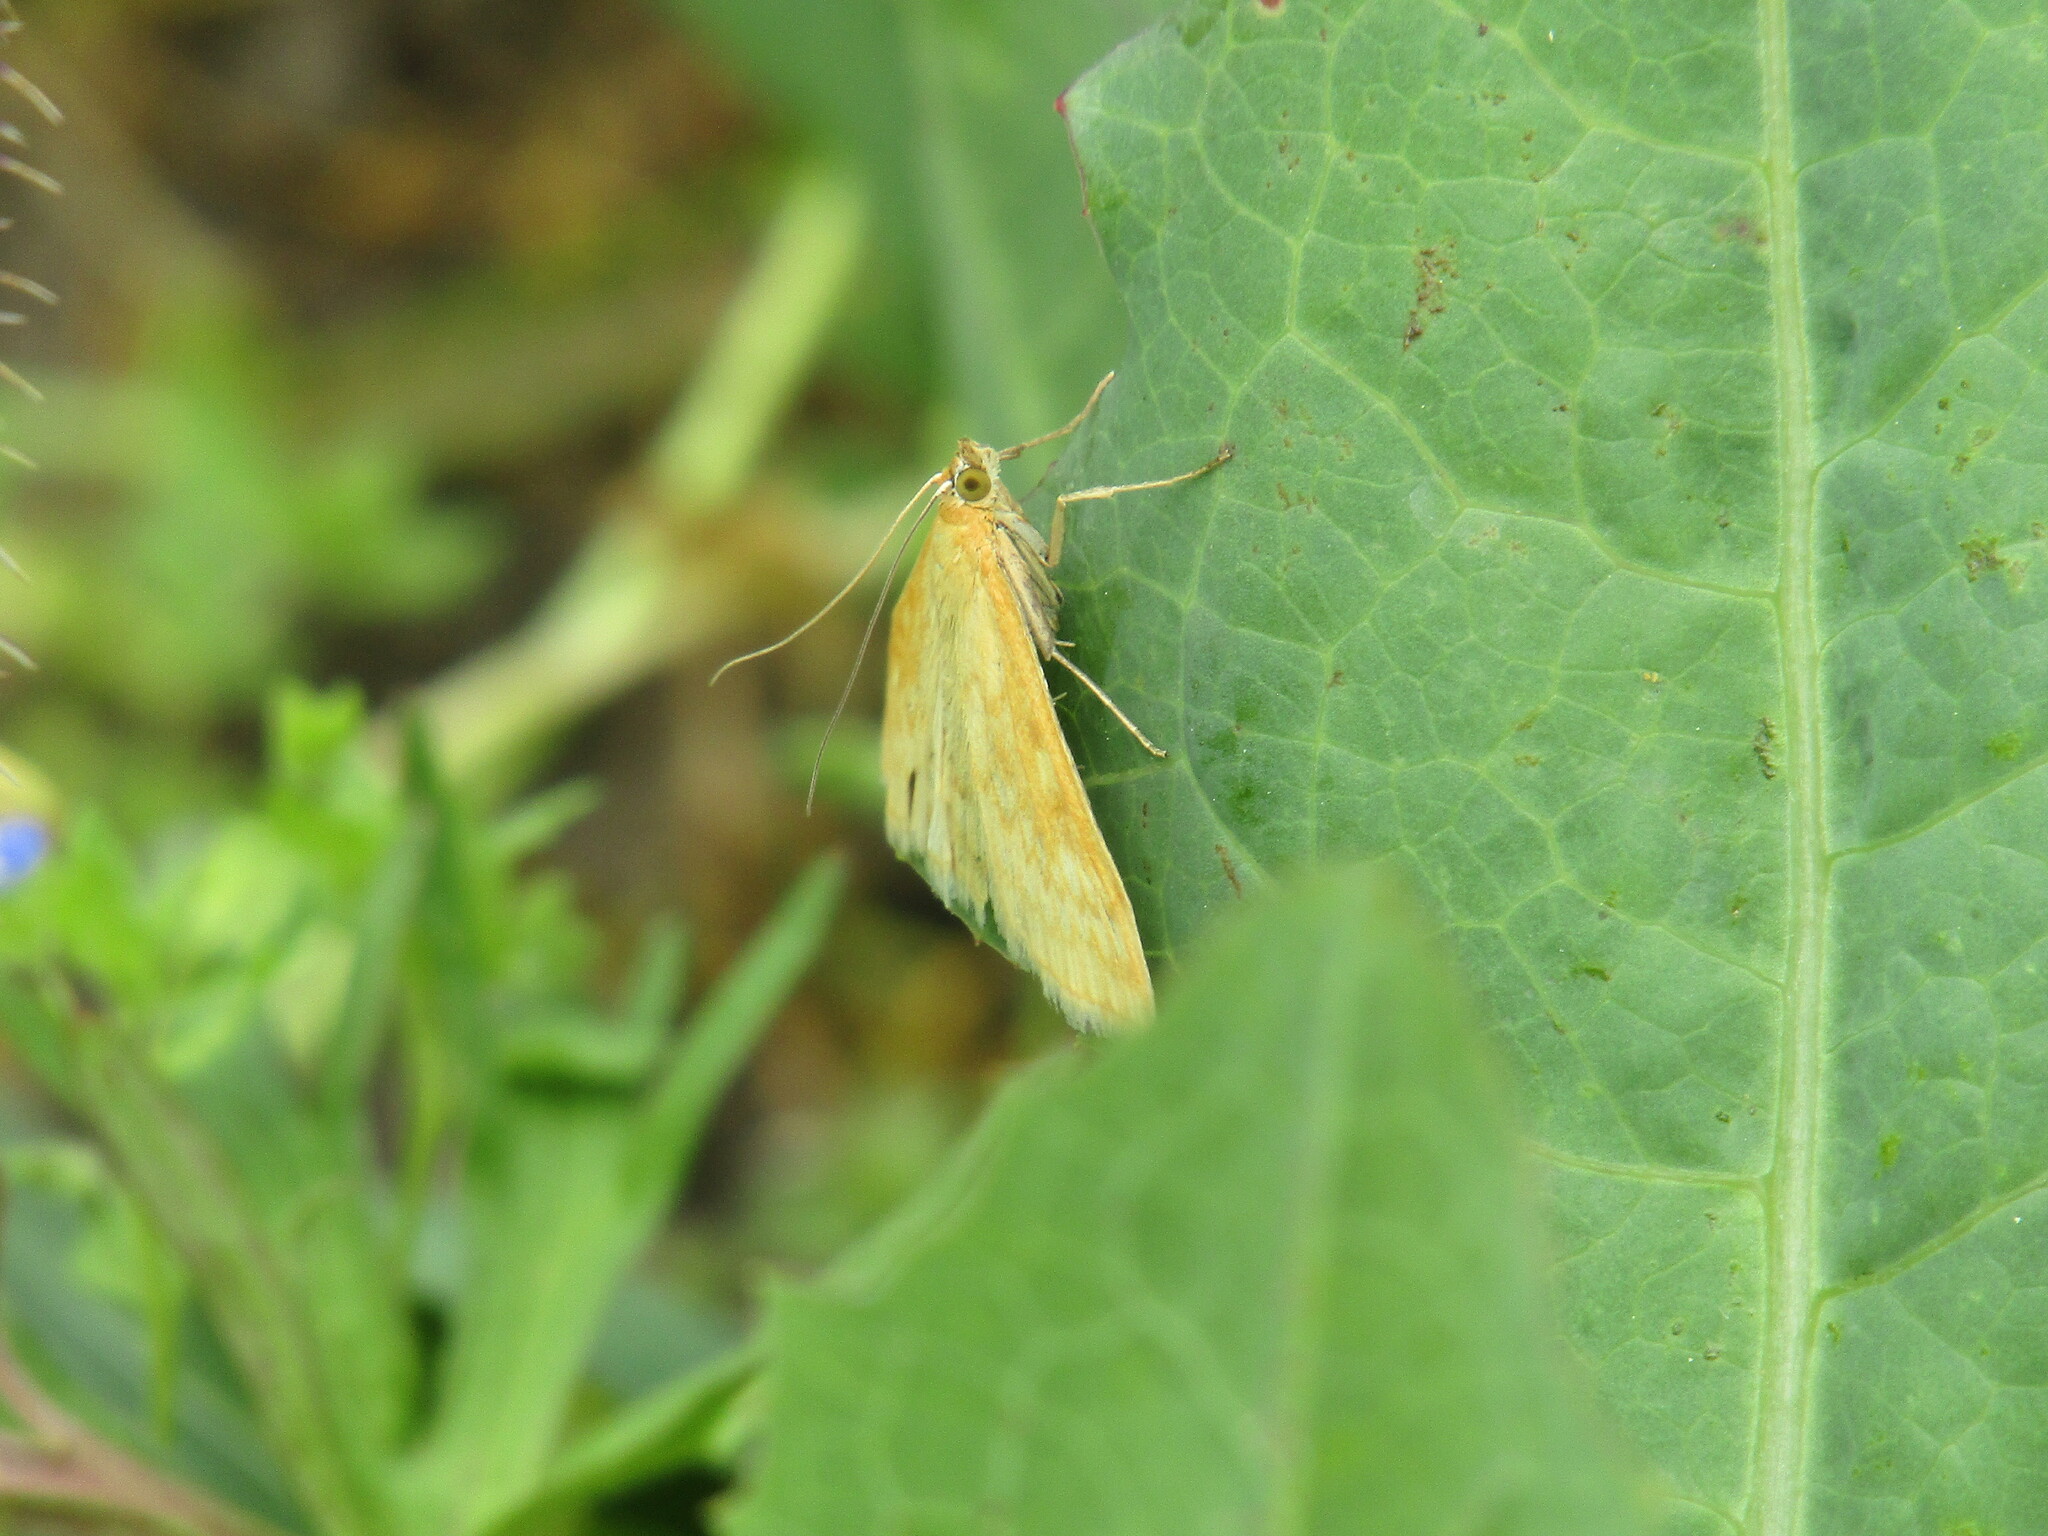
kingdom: Animalia
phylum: Arthropoda
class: Insecta
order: Lepidoptera
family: Crambidae
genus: Sitochroa
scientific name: Sitochroa verticalis
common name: Lesser pearl
